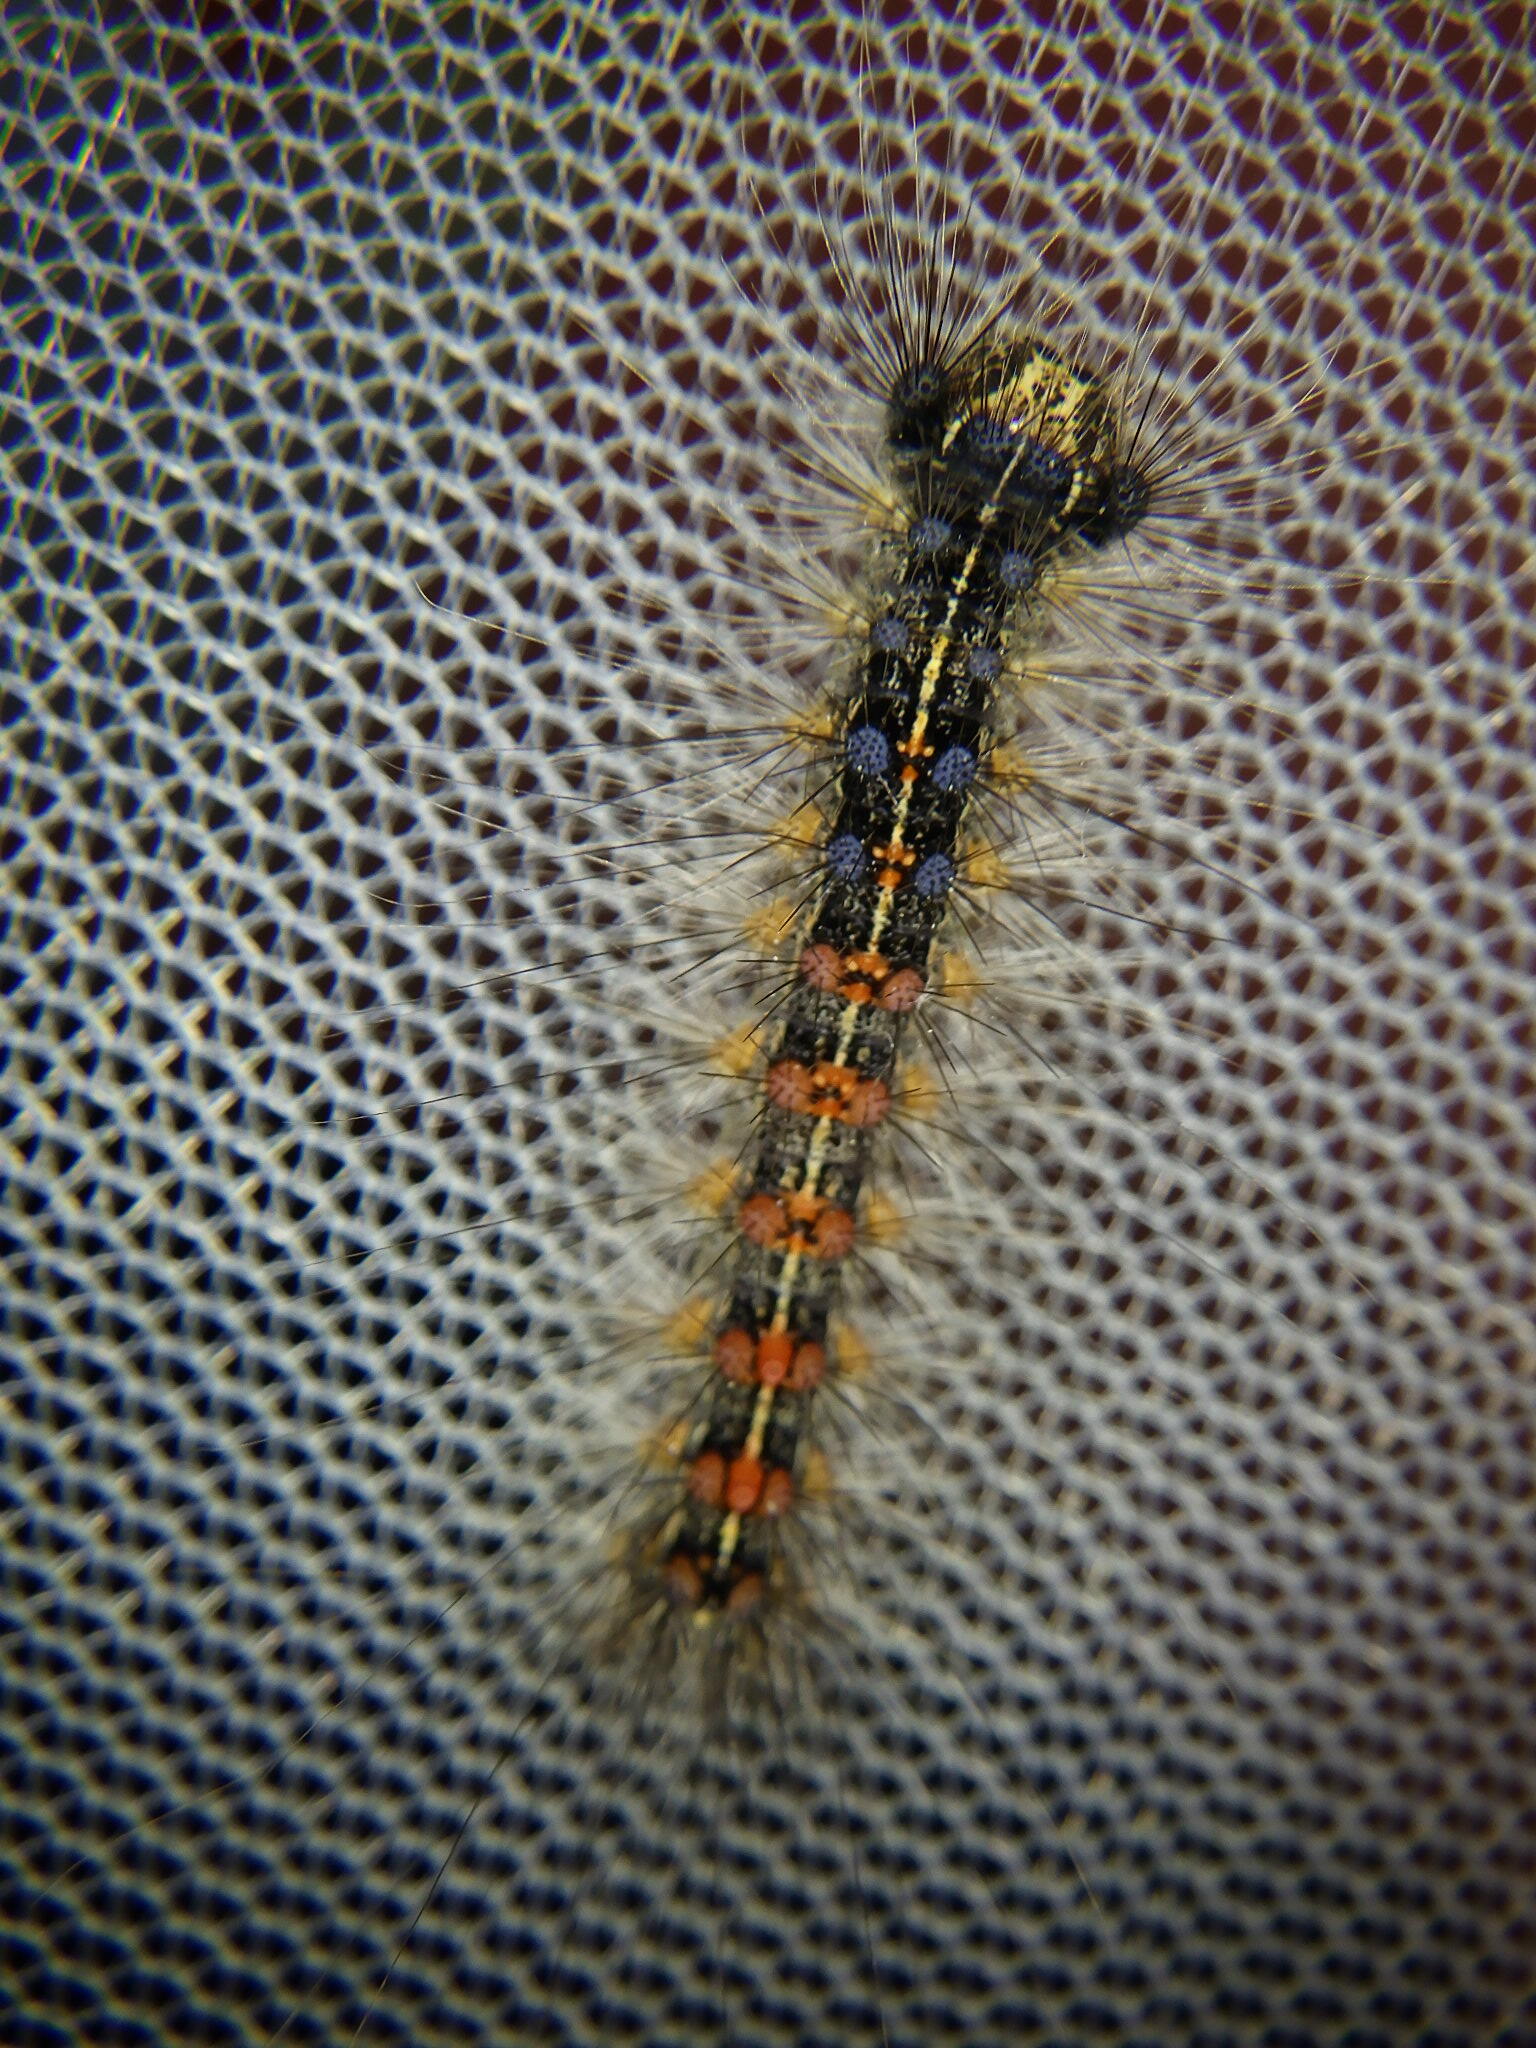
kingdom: Animalia
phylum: Arthropoda
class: Insecta
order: Lepidoptera
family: Erebidae
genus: Lymantria
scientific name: Lymantria dispar
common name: Gypsy moth
